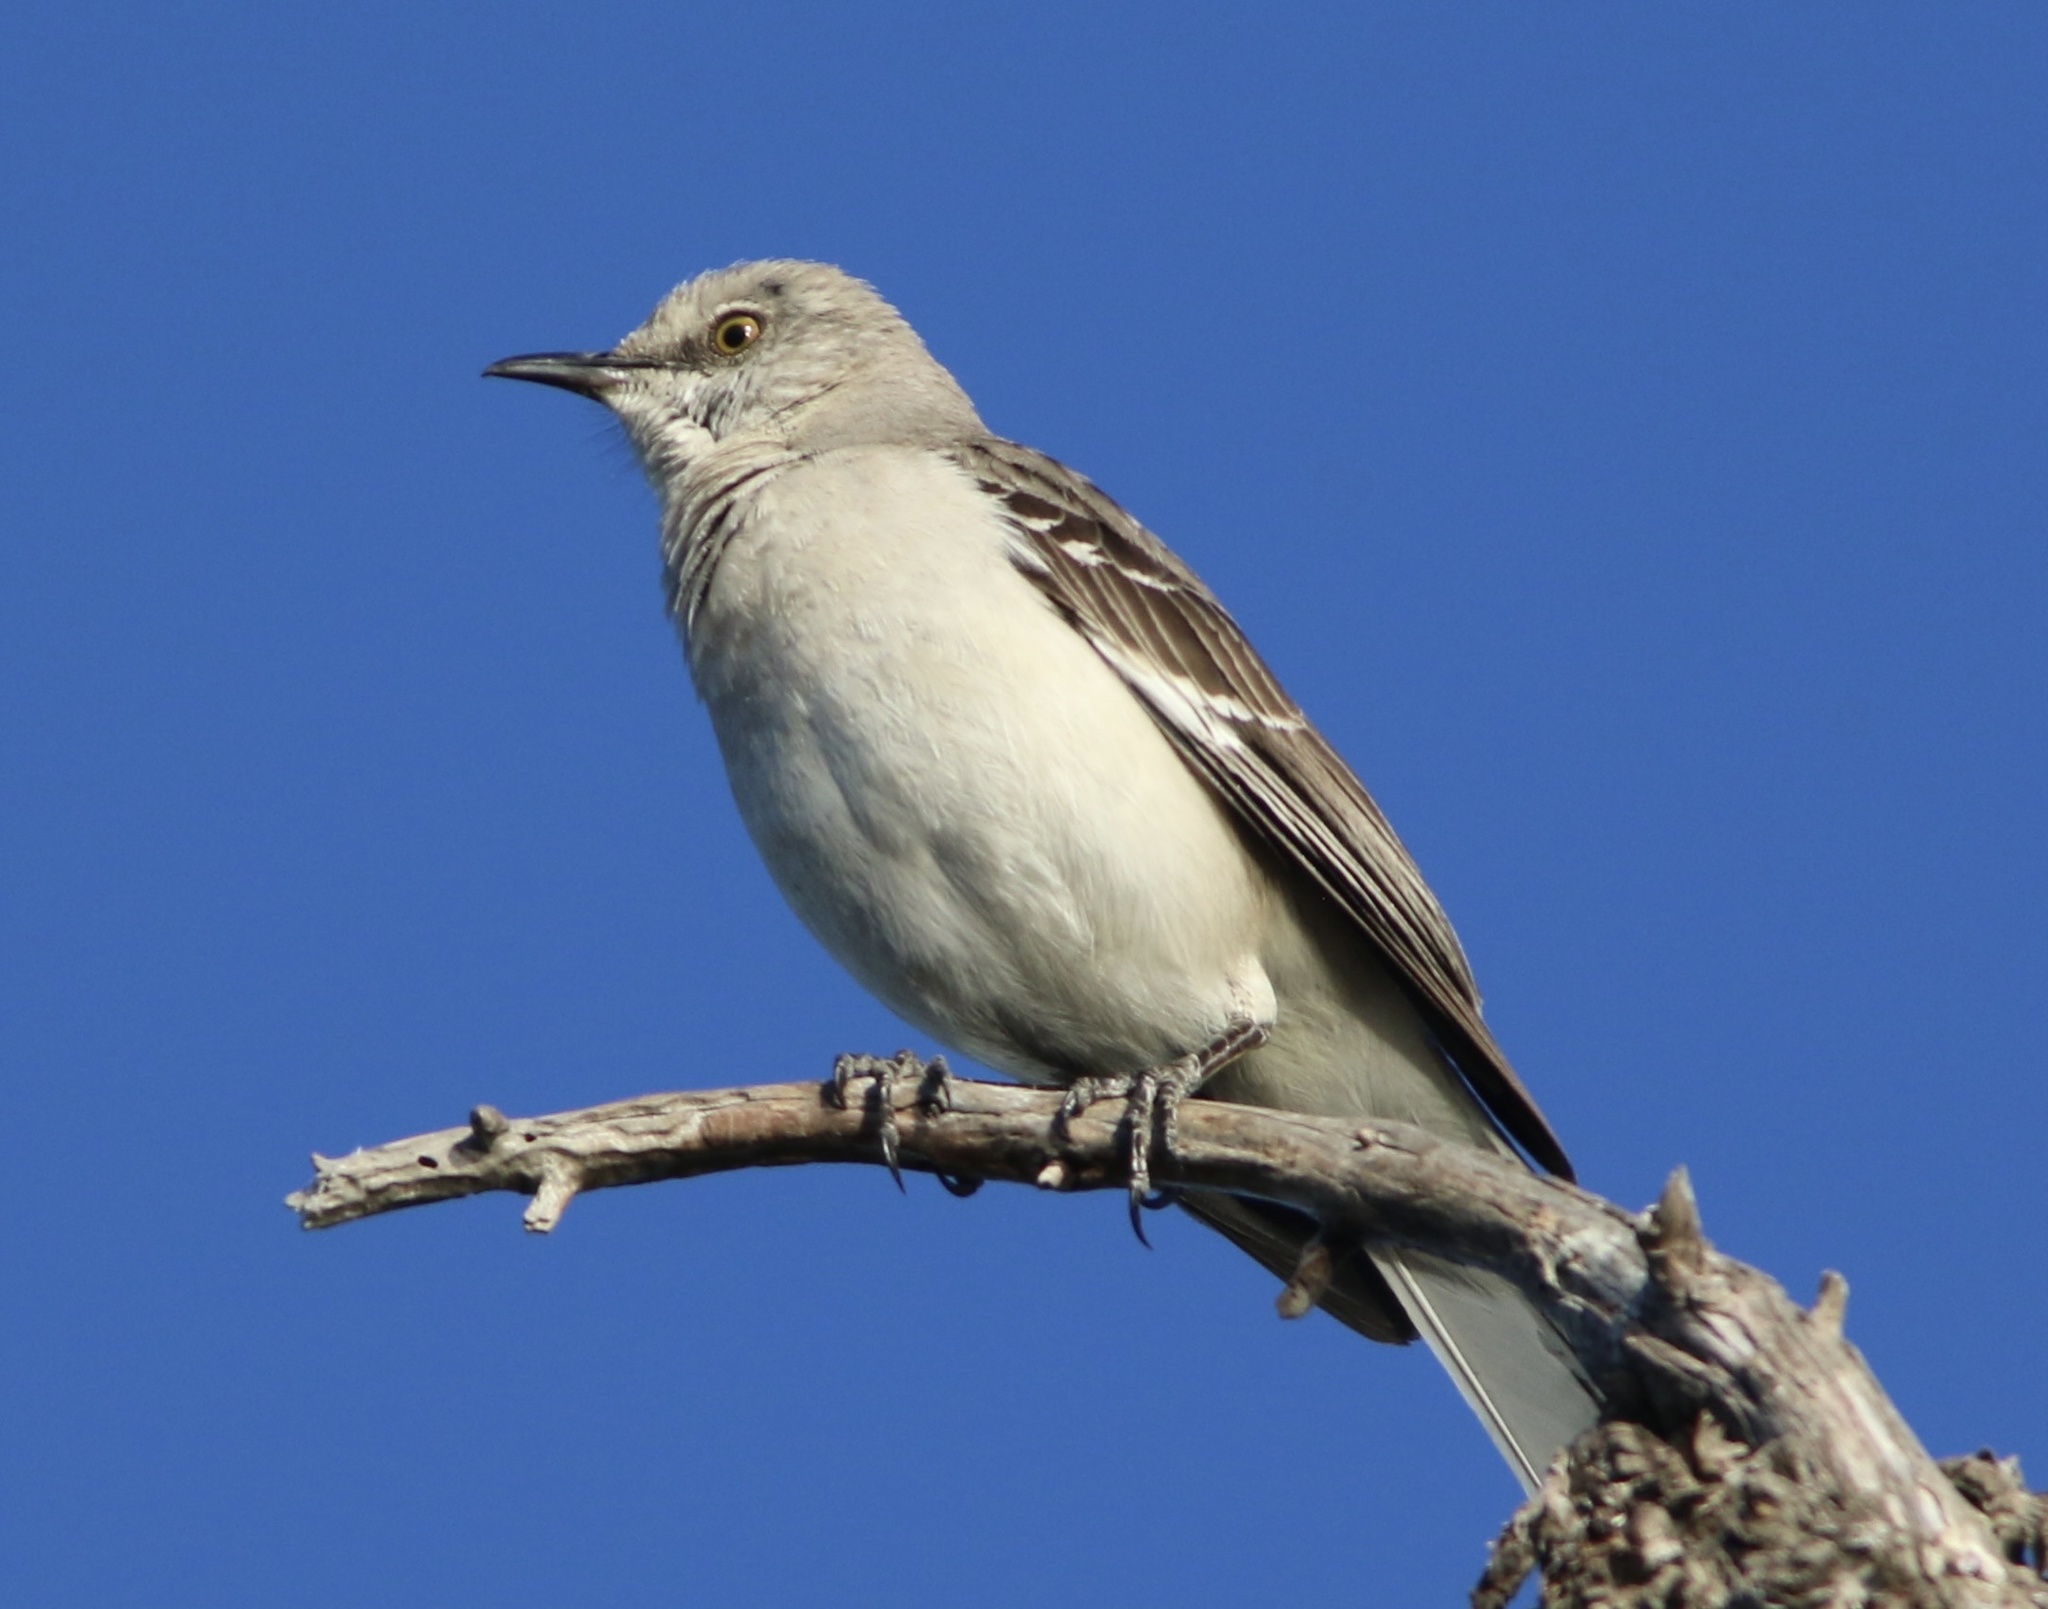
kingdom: Animalia
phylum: Chordata
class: Aves
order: Passeriformes
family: Mimidae
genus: Mimus
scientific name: Mimus polyglottos
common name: Northern mockingbird
